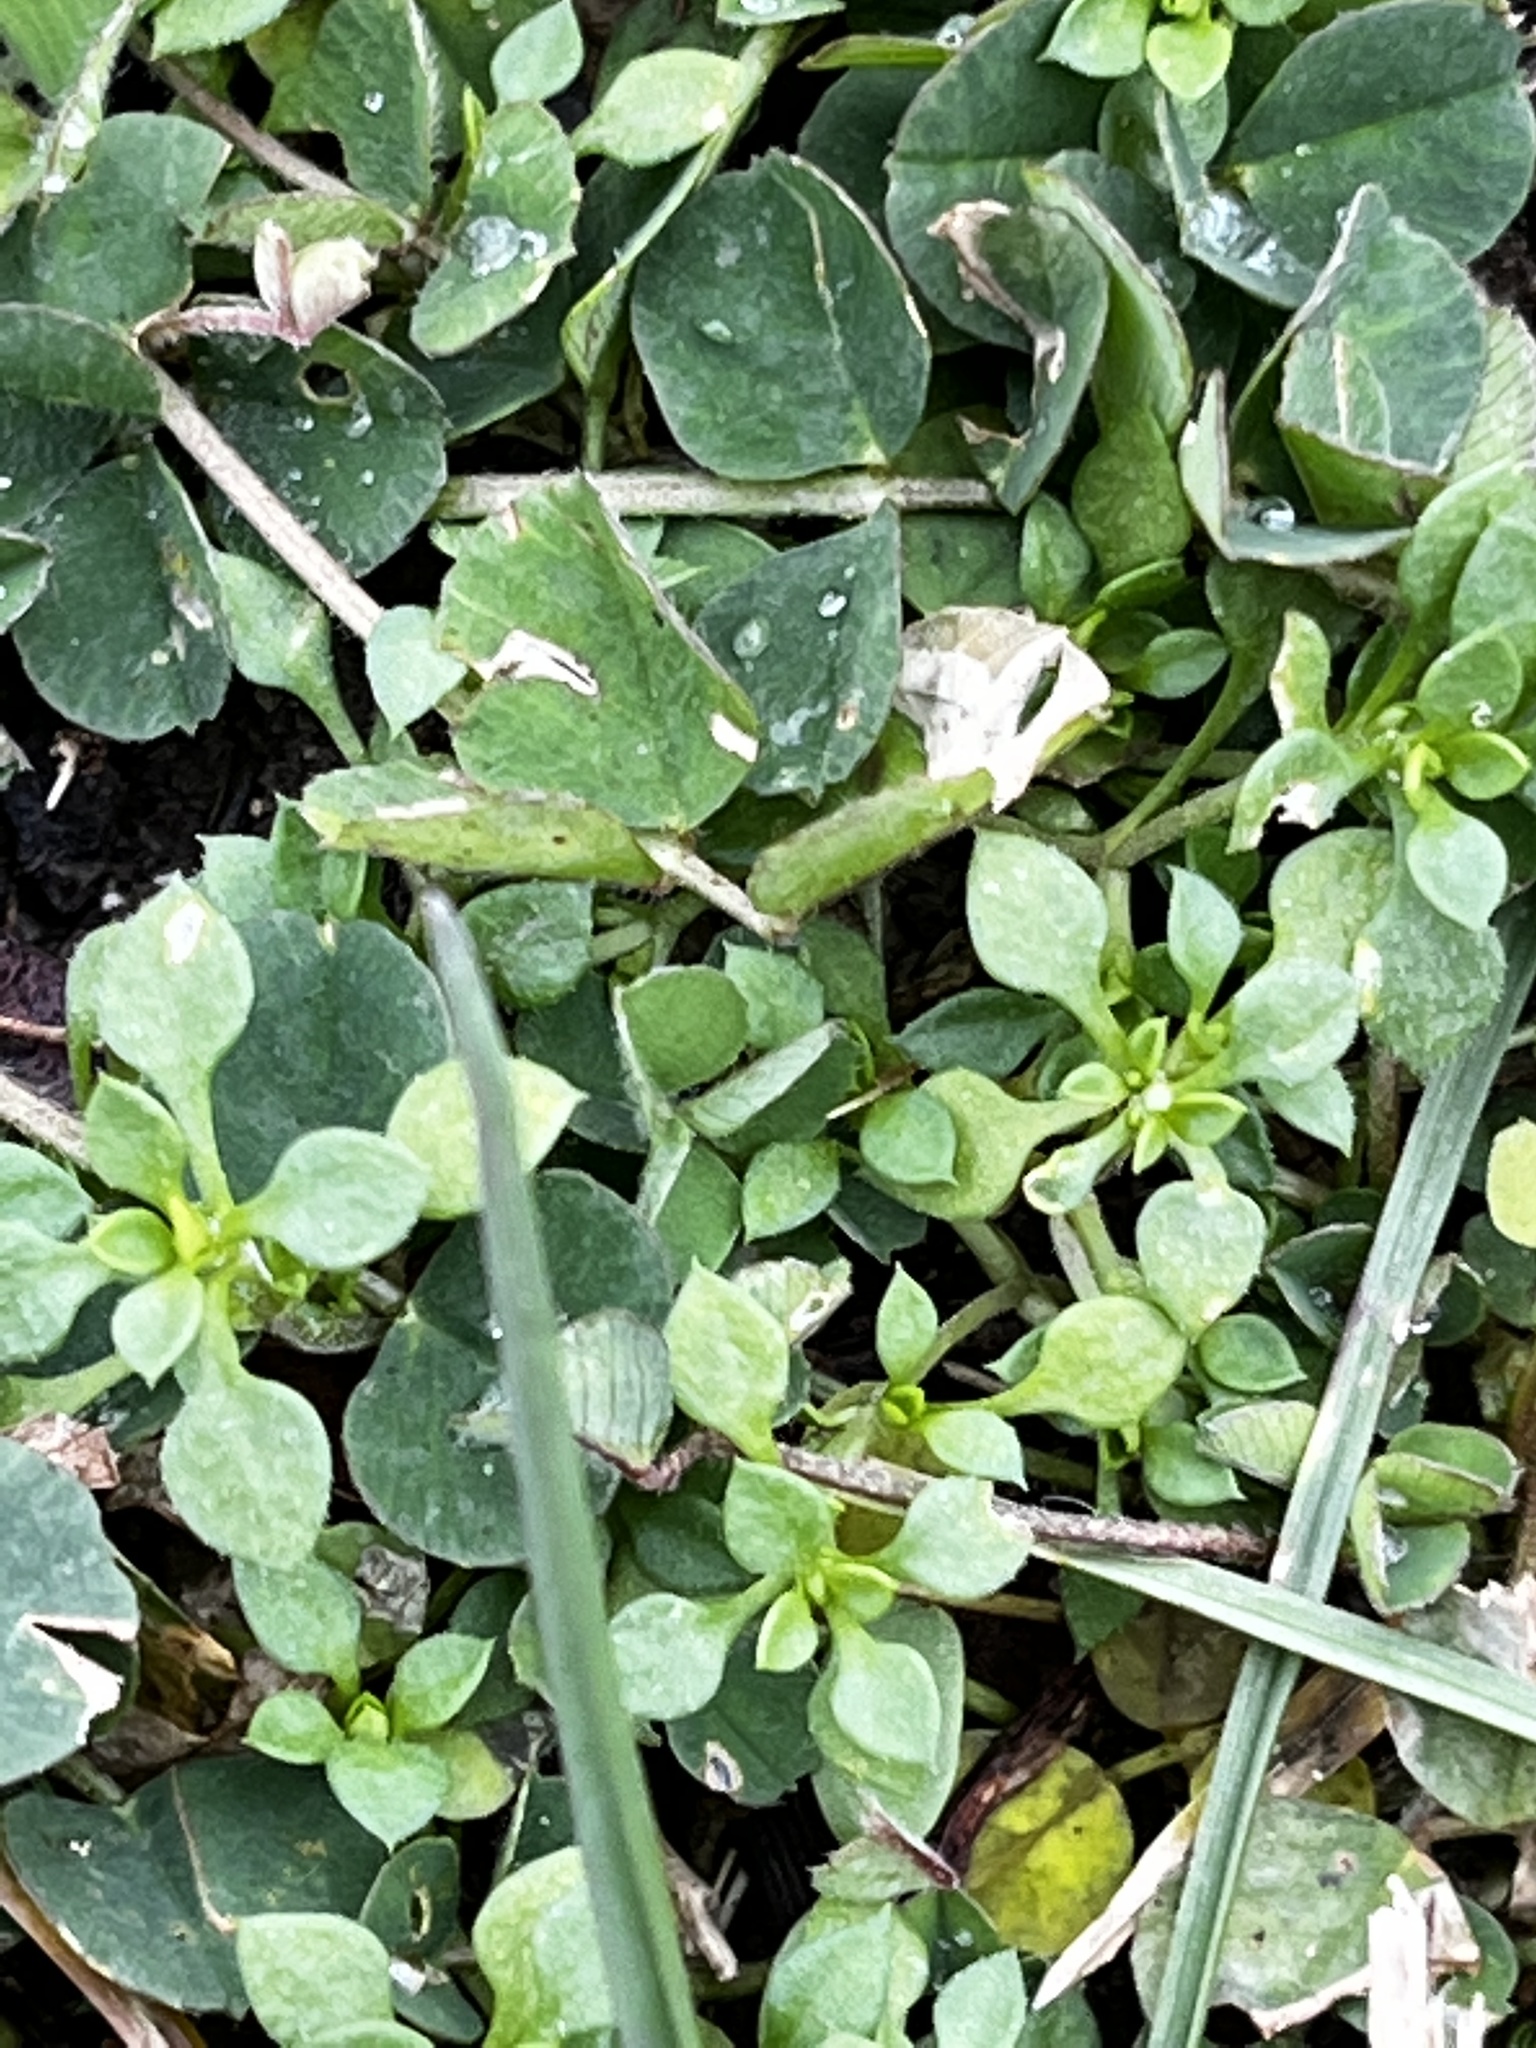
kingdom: Plantae
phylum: Tracheophyta
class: Magnoliopsida
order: Caryophyllales
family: Caryophyllaceae
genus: Stellaria
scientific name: Stellaria media
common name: Common chickweed
